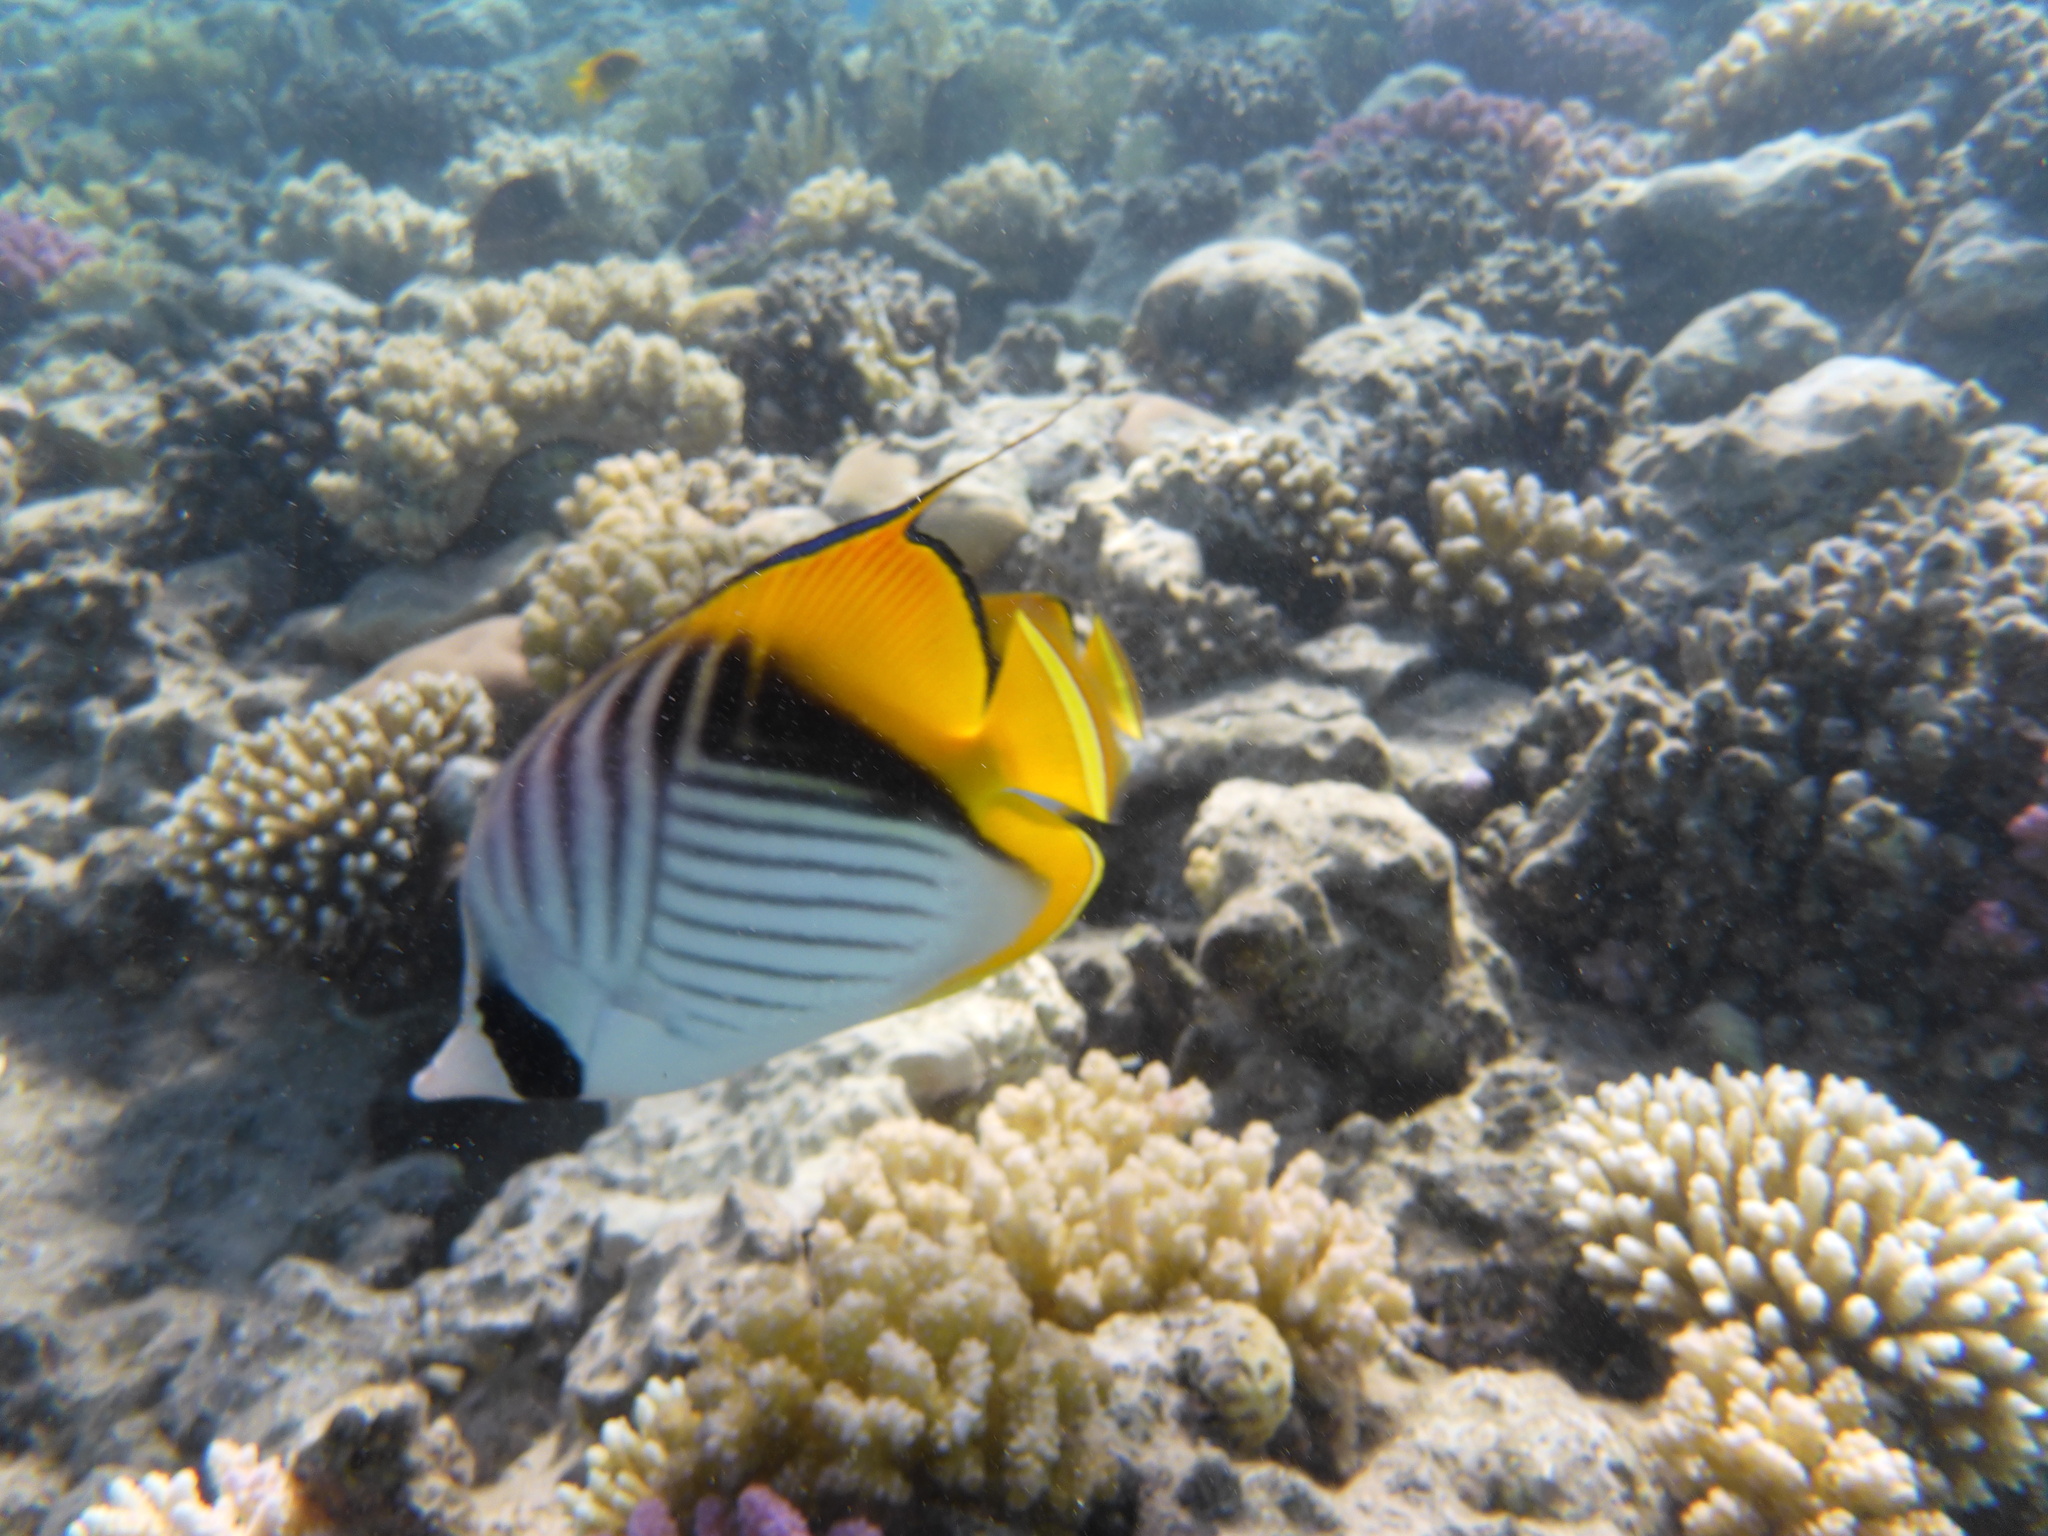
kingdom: Animalia
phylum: Chordata
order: Perciformes
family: Chaetodontidae
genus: Chaetodon
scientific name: Chaetodon auriga
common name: Threadfin butterflyfish
